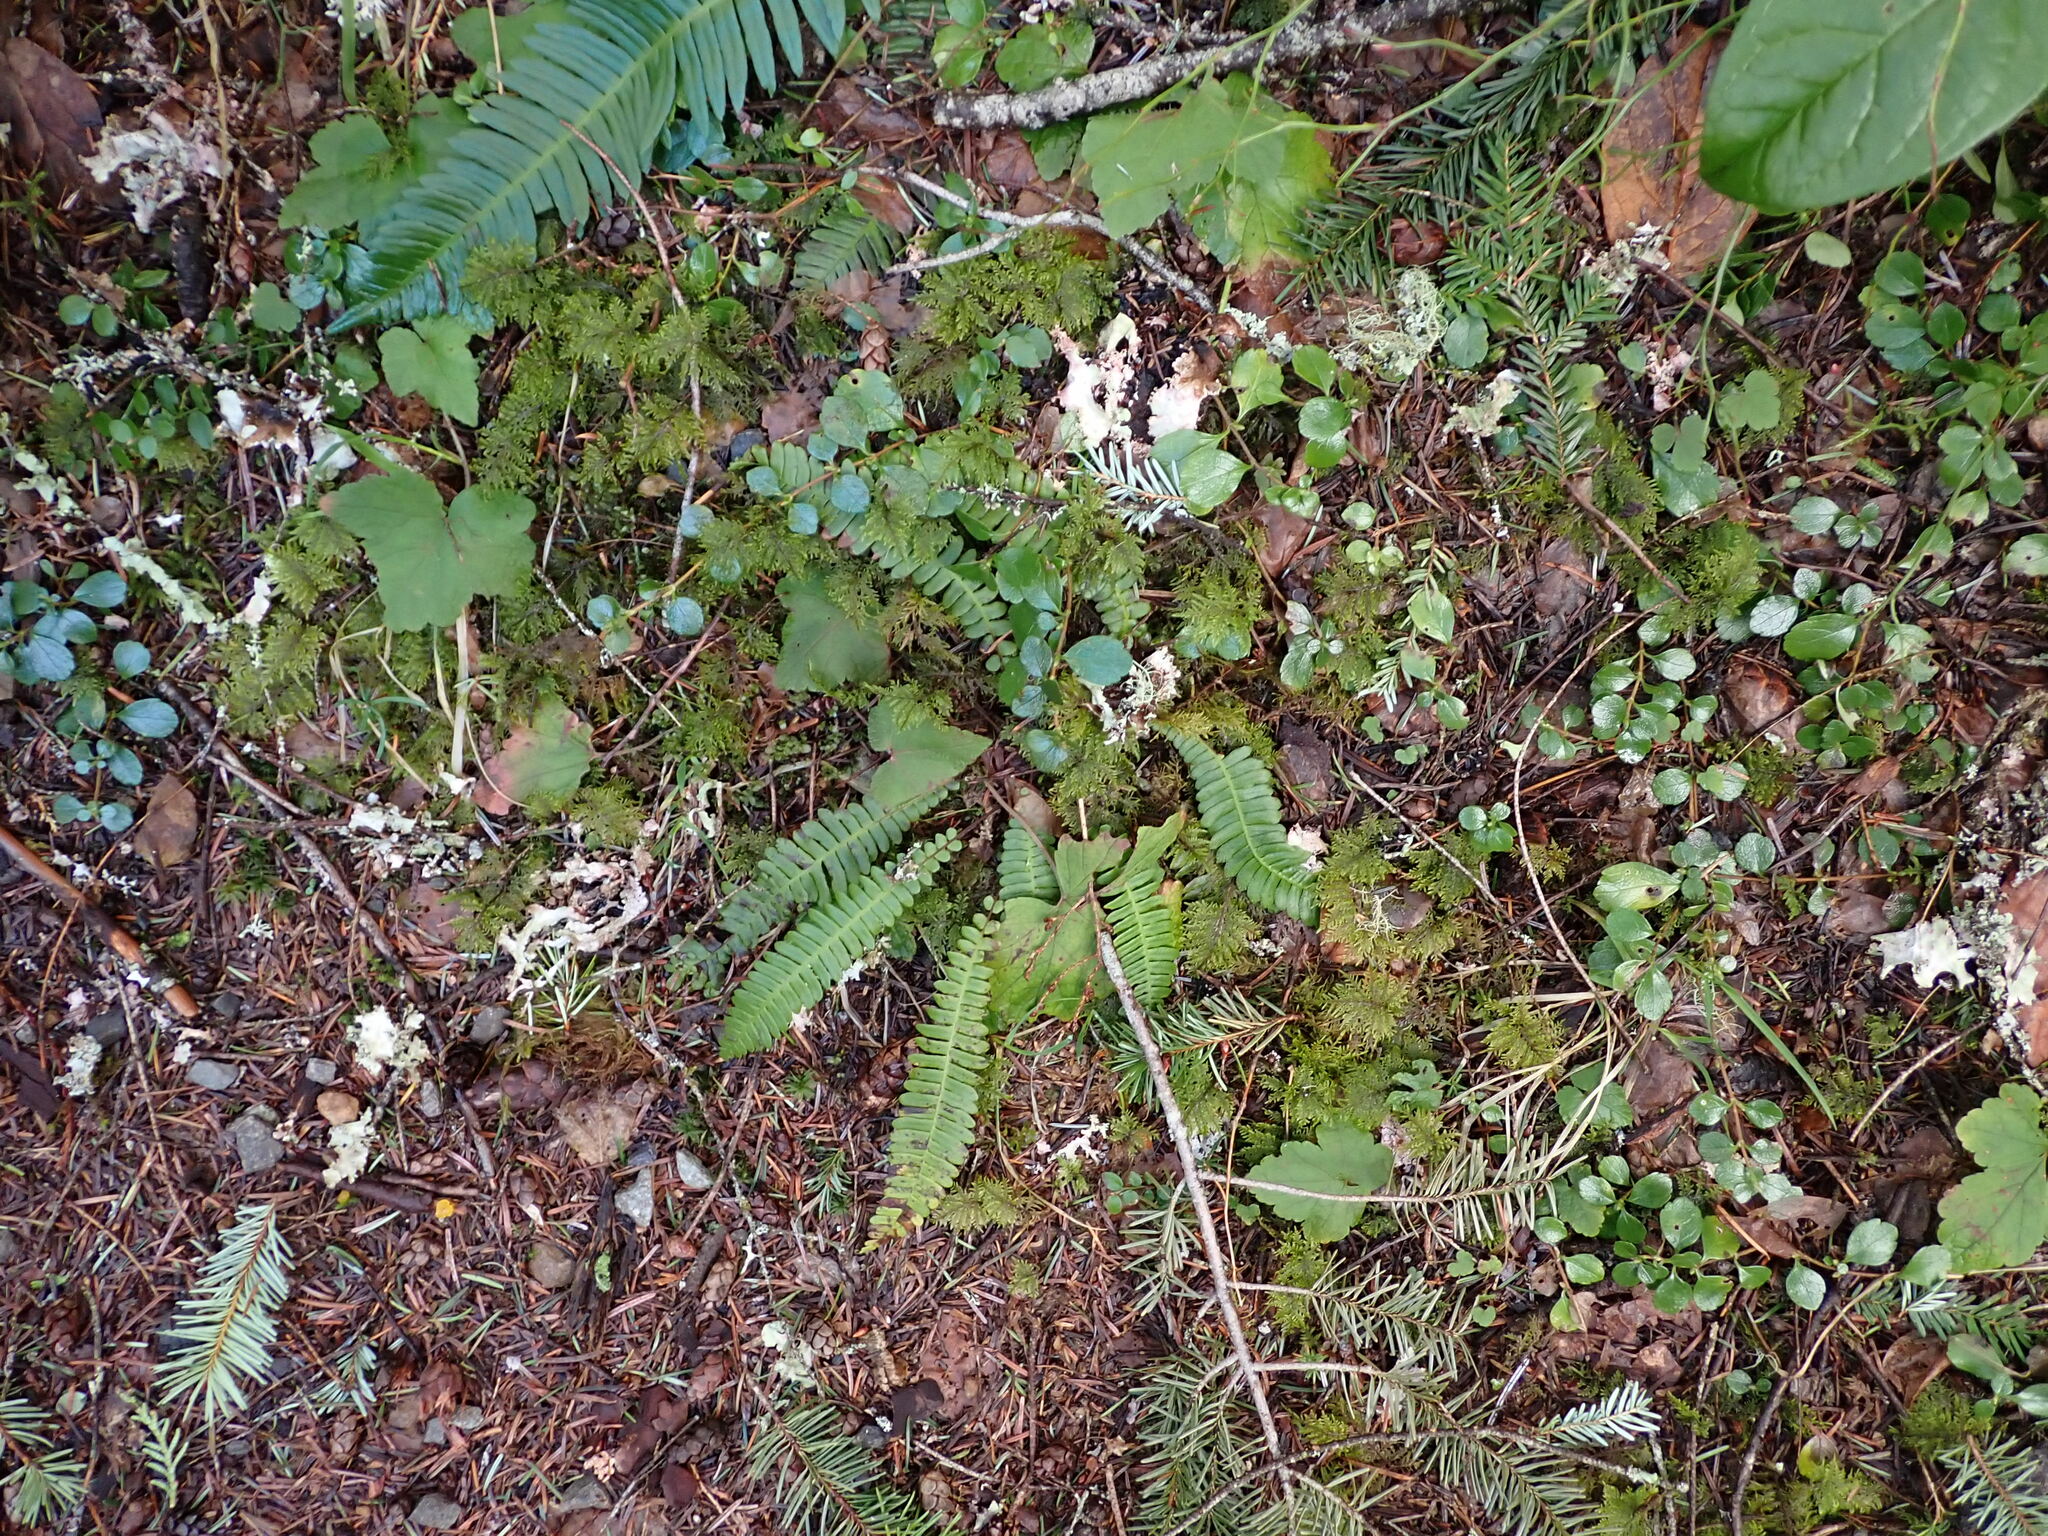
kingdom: Plantae
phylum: Tracheophyta
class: Polypodiopsida
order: Polypodiales
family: Blechnaceae
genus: Struthiopteris
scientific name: Struthiopteris spicant
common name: Deer fern
